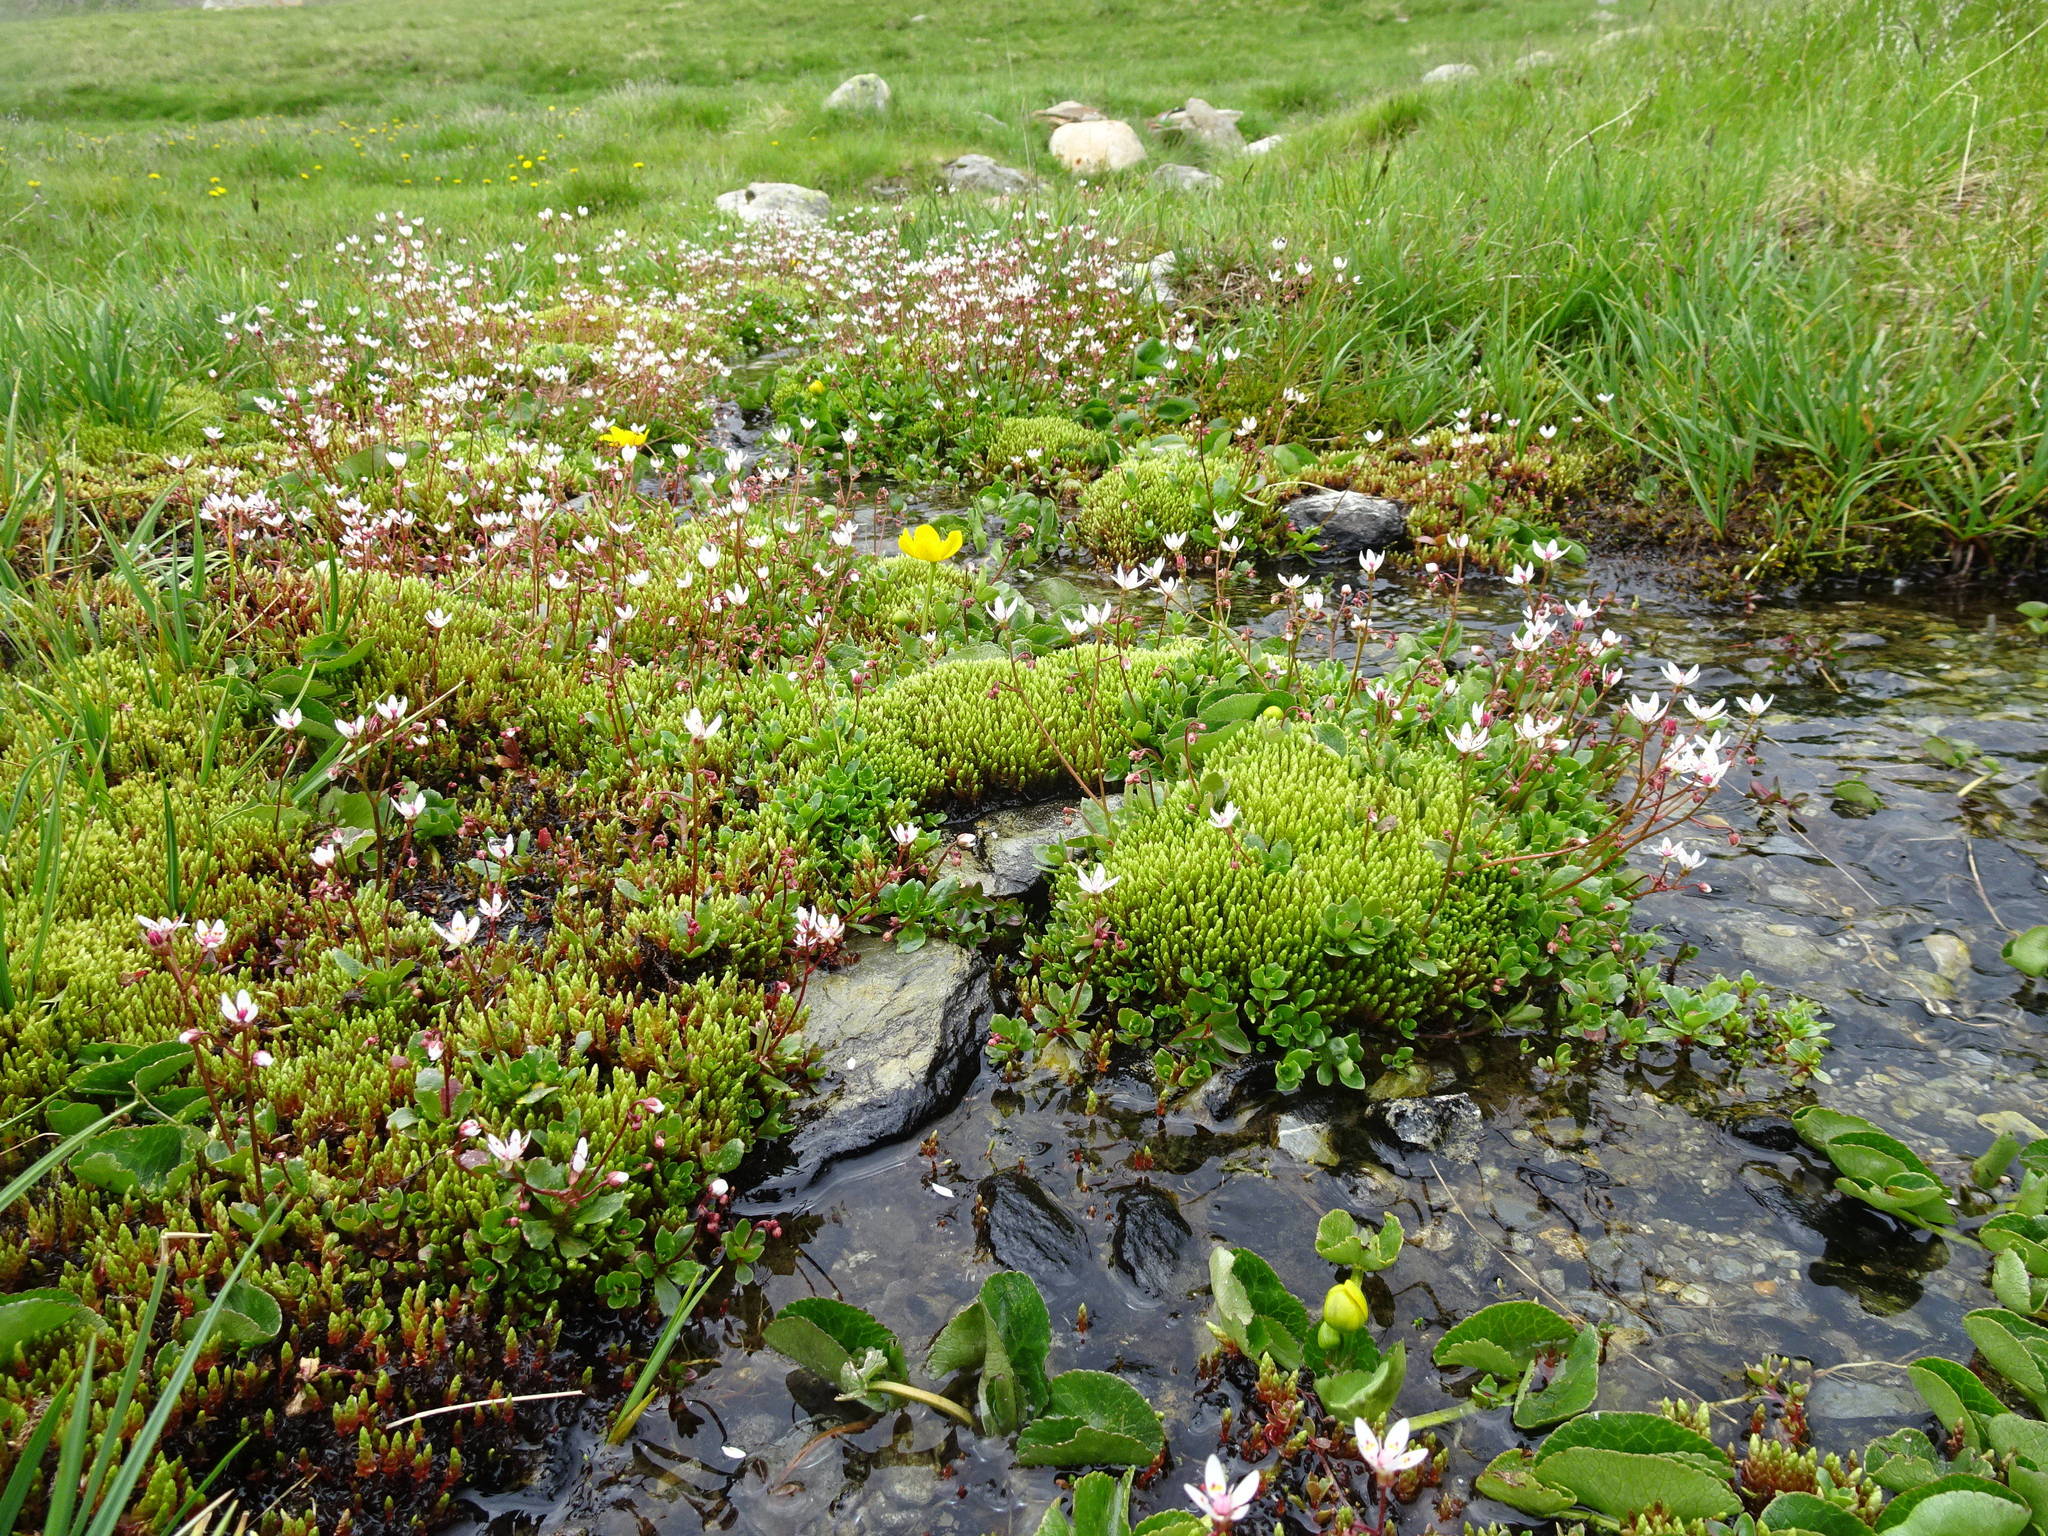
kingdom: Plantae
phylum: Tracheophyta
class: Magnoliopsida
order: Saxifragales
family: Saxifragaceae
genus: Micranthes
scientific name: Micranthes stellaris
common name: Starry saxifrage
